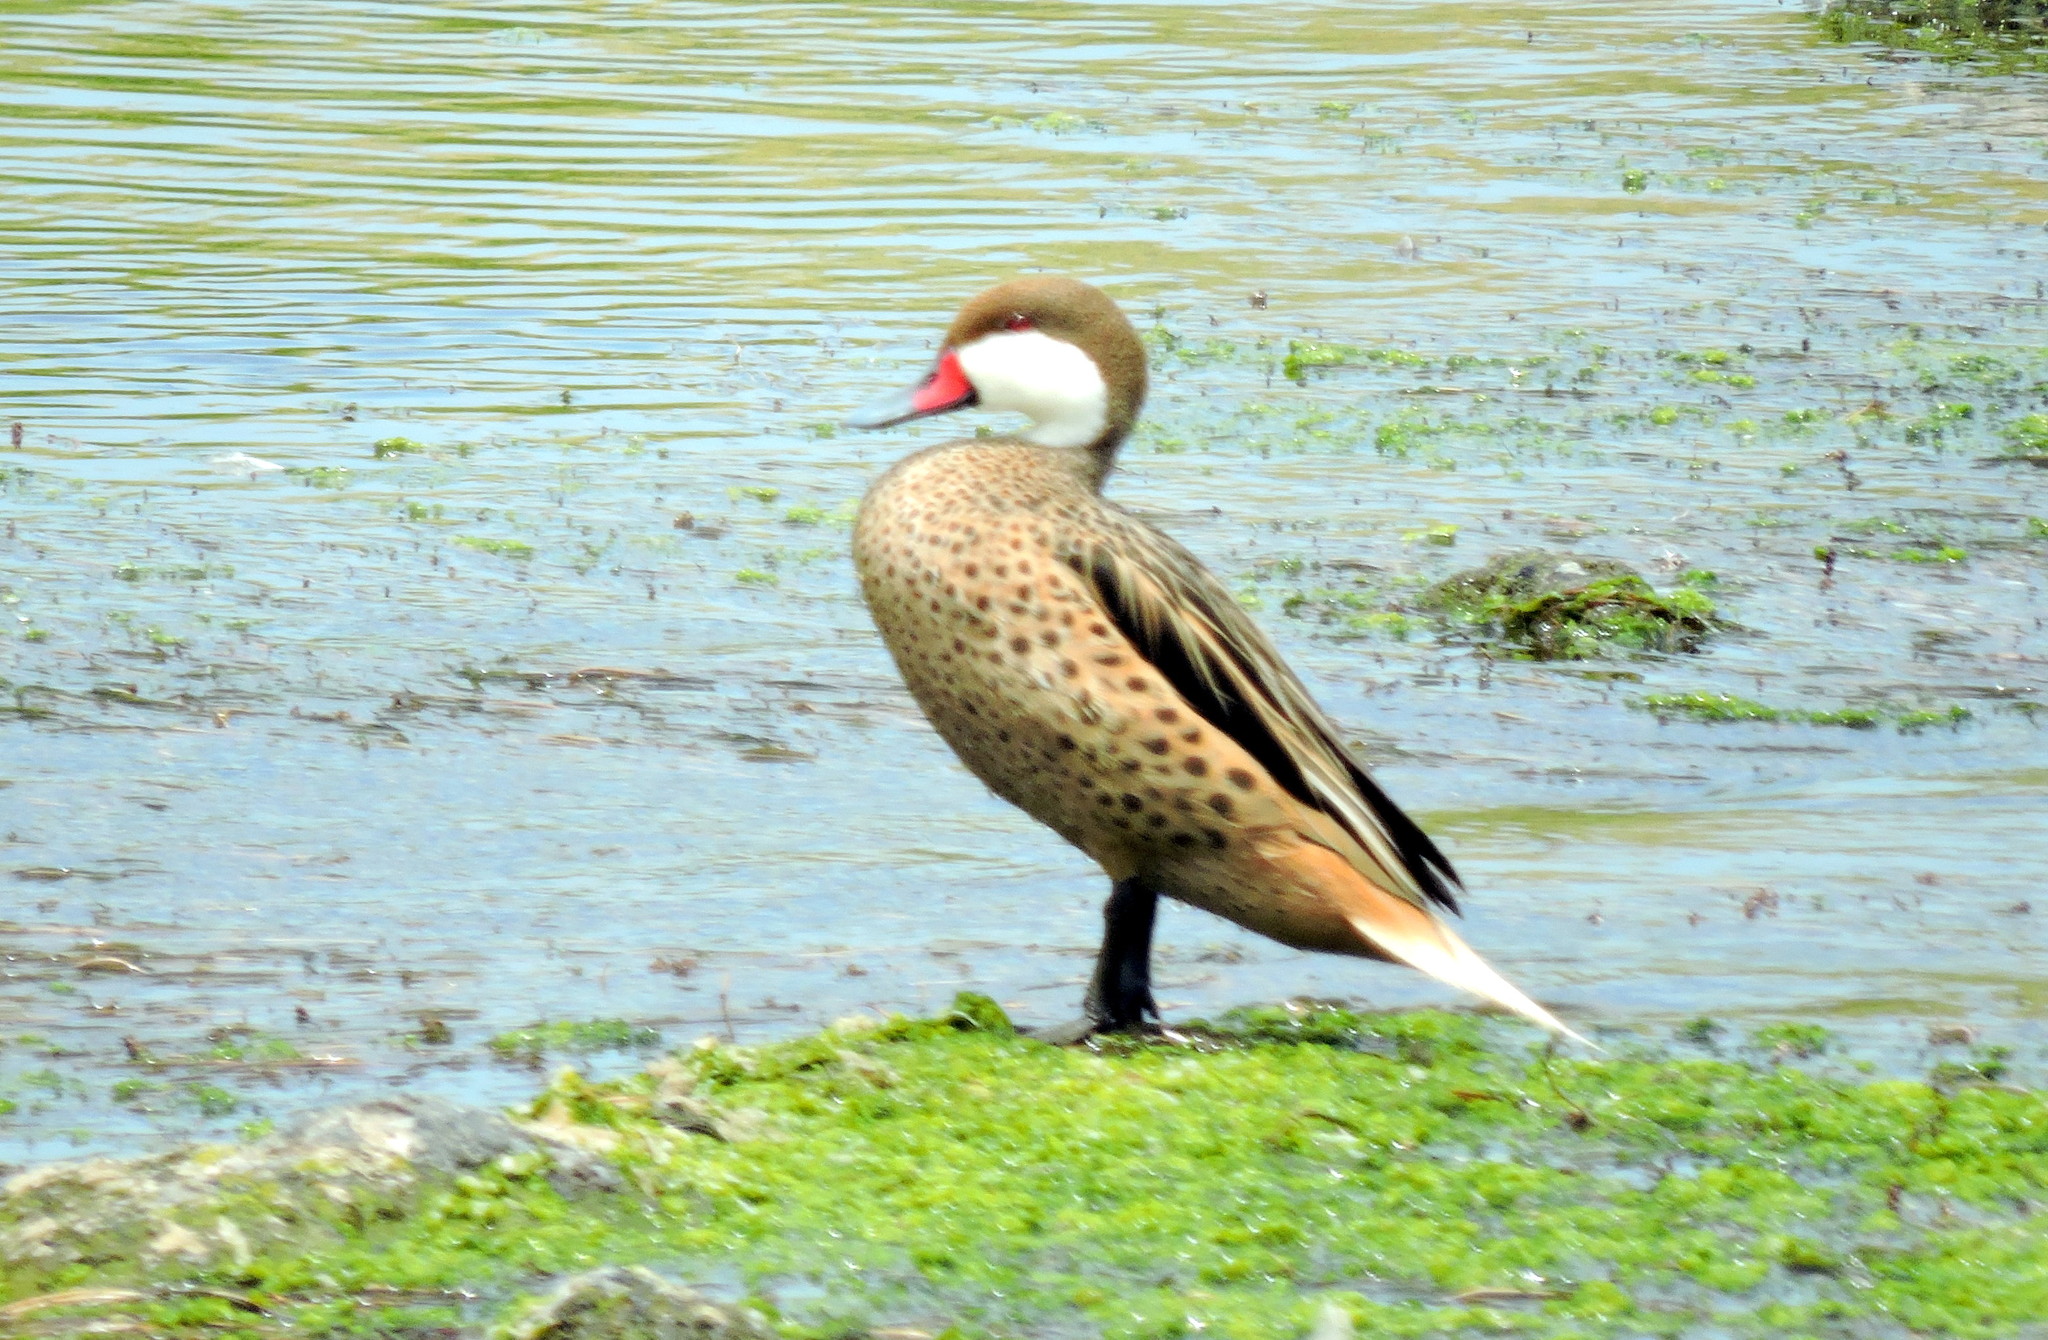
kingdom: Animalia
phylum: Chordata
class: Aves
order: Anseriformes
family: Anatidae
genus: Anas
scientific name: Anas bahamensis
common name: White-cheeked pintail
